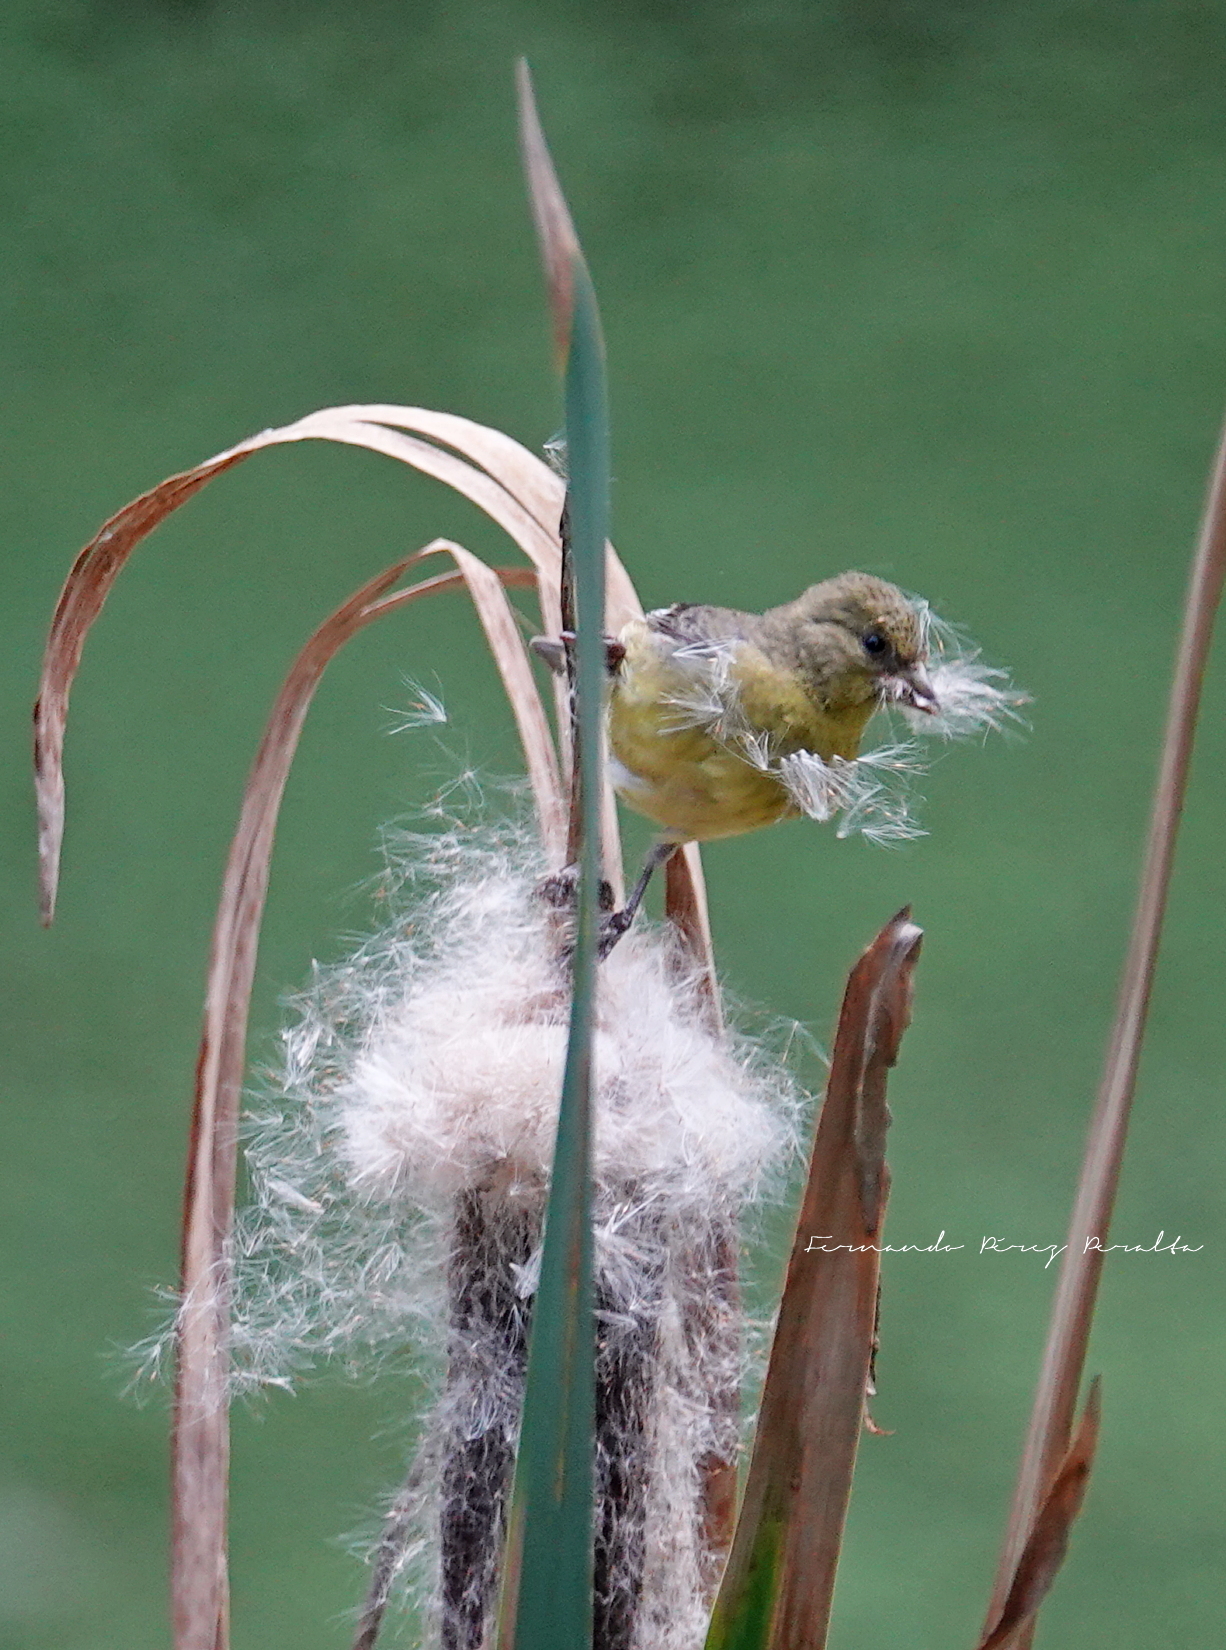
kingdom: Animalia
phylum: Chordata
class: Aves
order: Passeriformes
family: Fringillidae
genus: Spinus
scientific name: Spinus psaltria
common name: Lesser goldfinch
